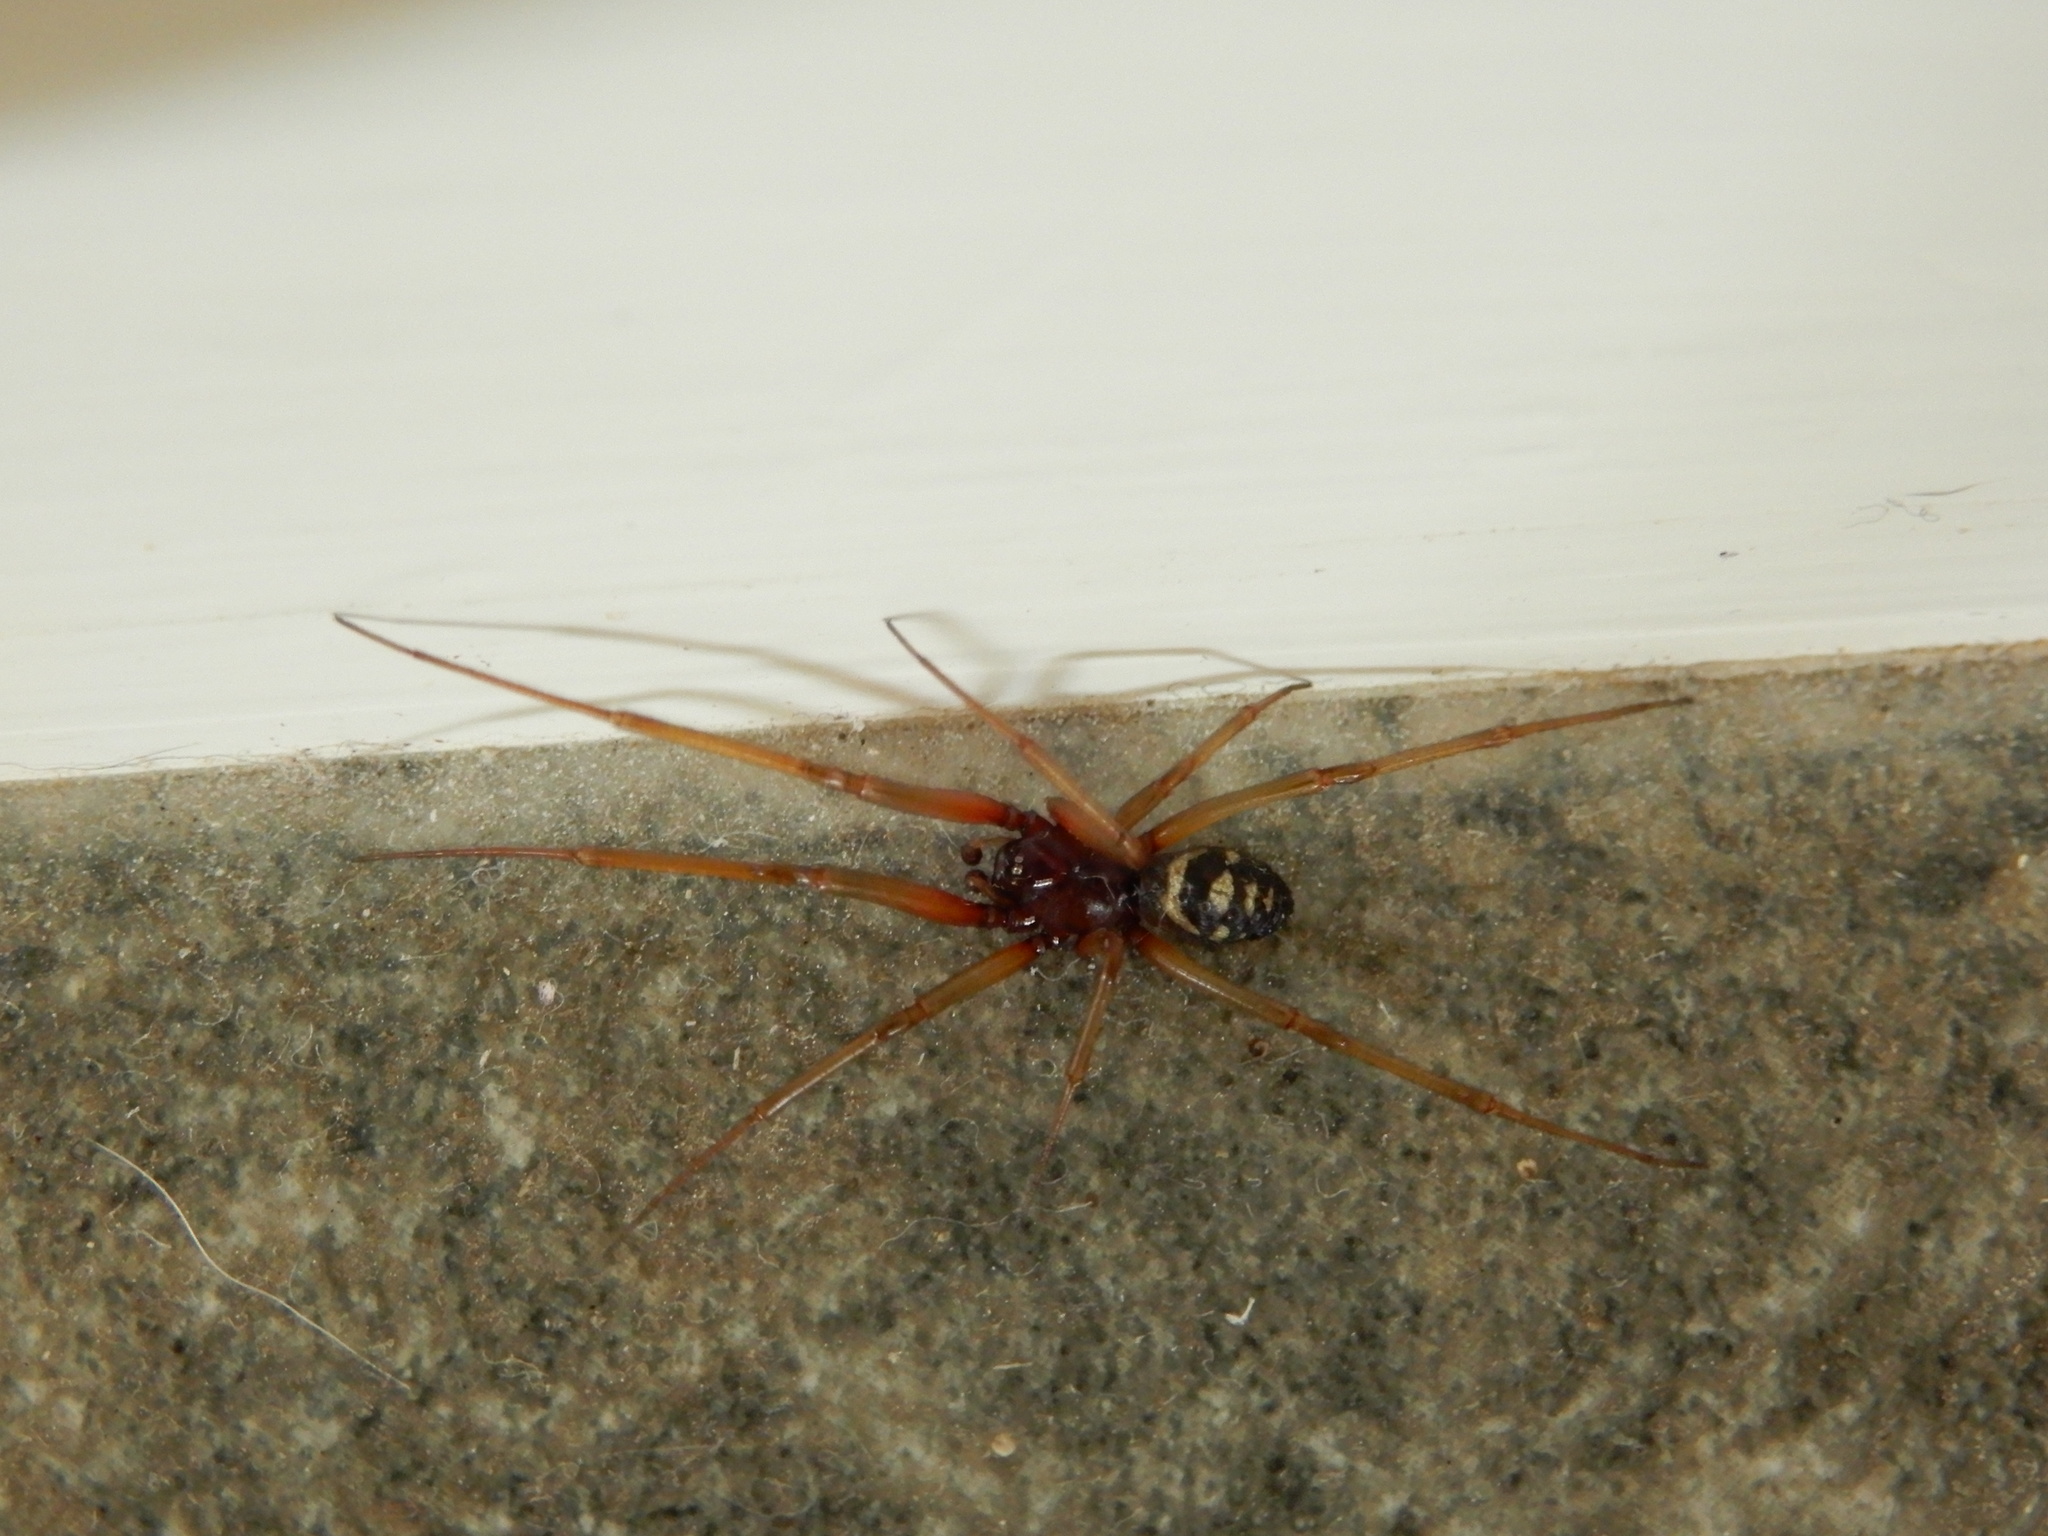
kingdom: Animalia
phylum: Arthropoda
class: Arachnida
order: Araneae
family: Theridiidae
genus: Steatoda
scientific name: Steatoda grossa
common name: False black widow
